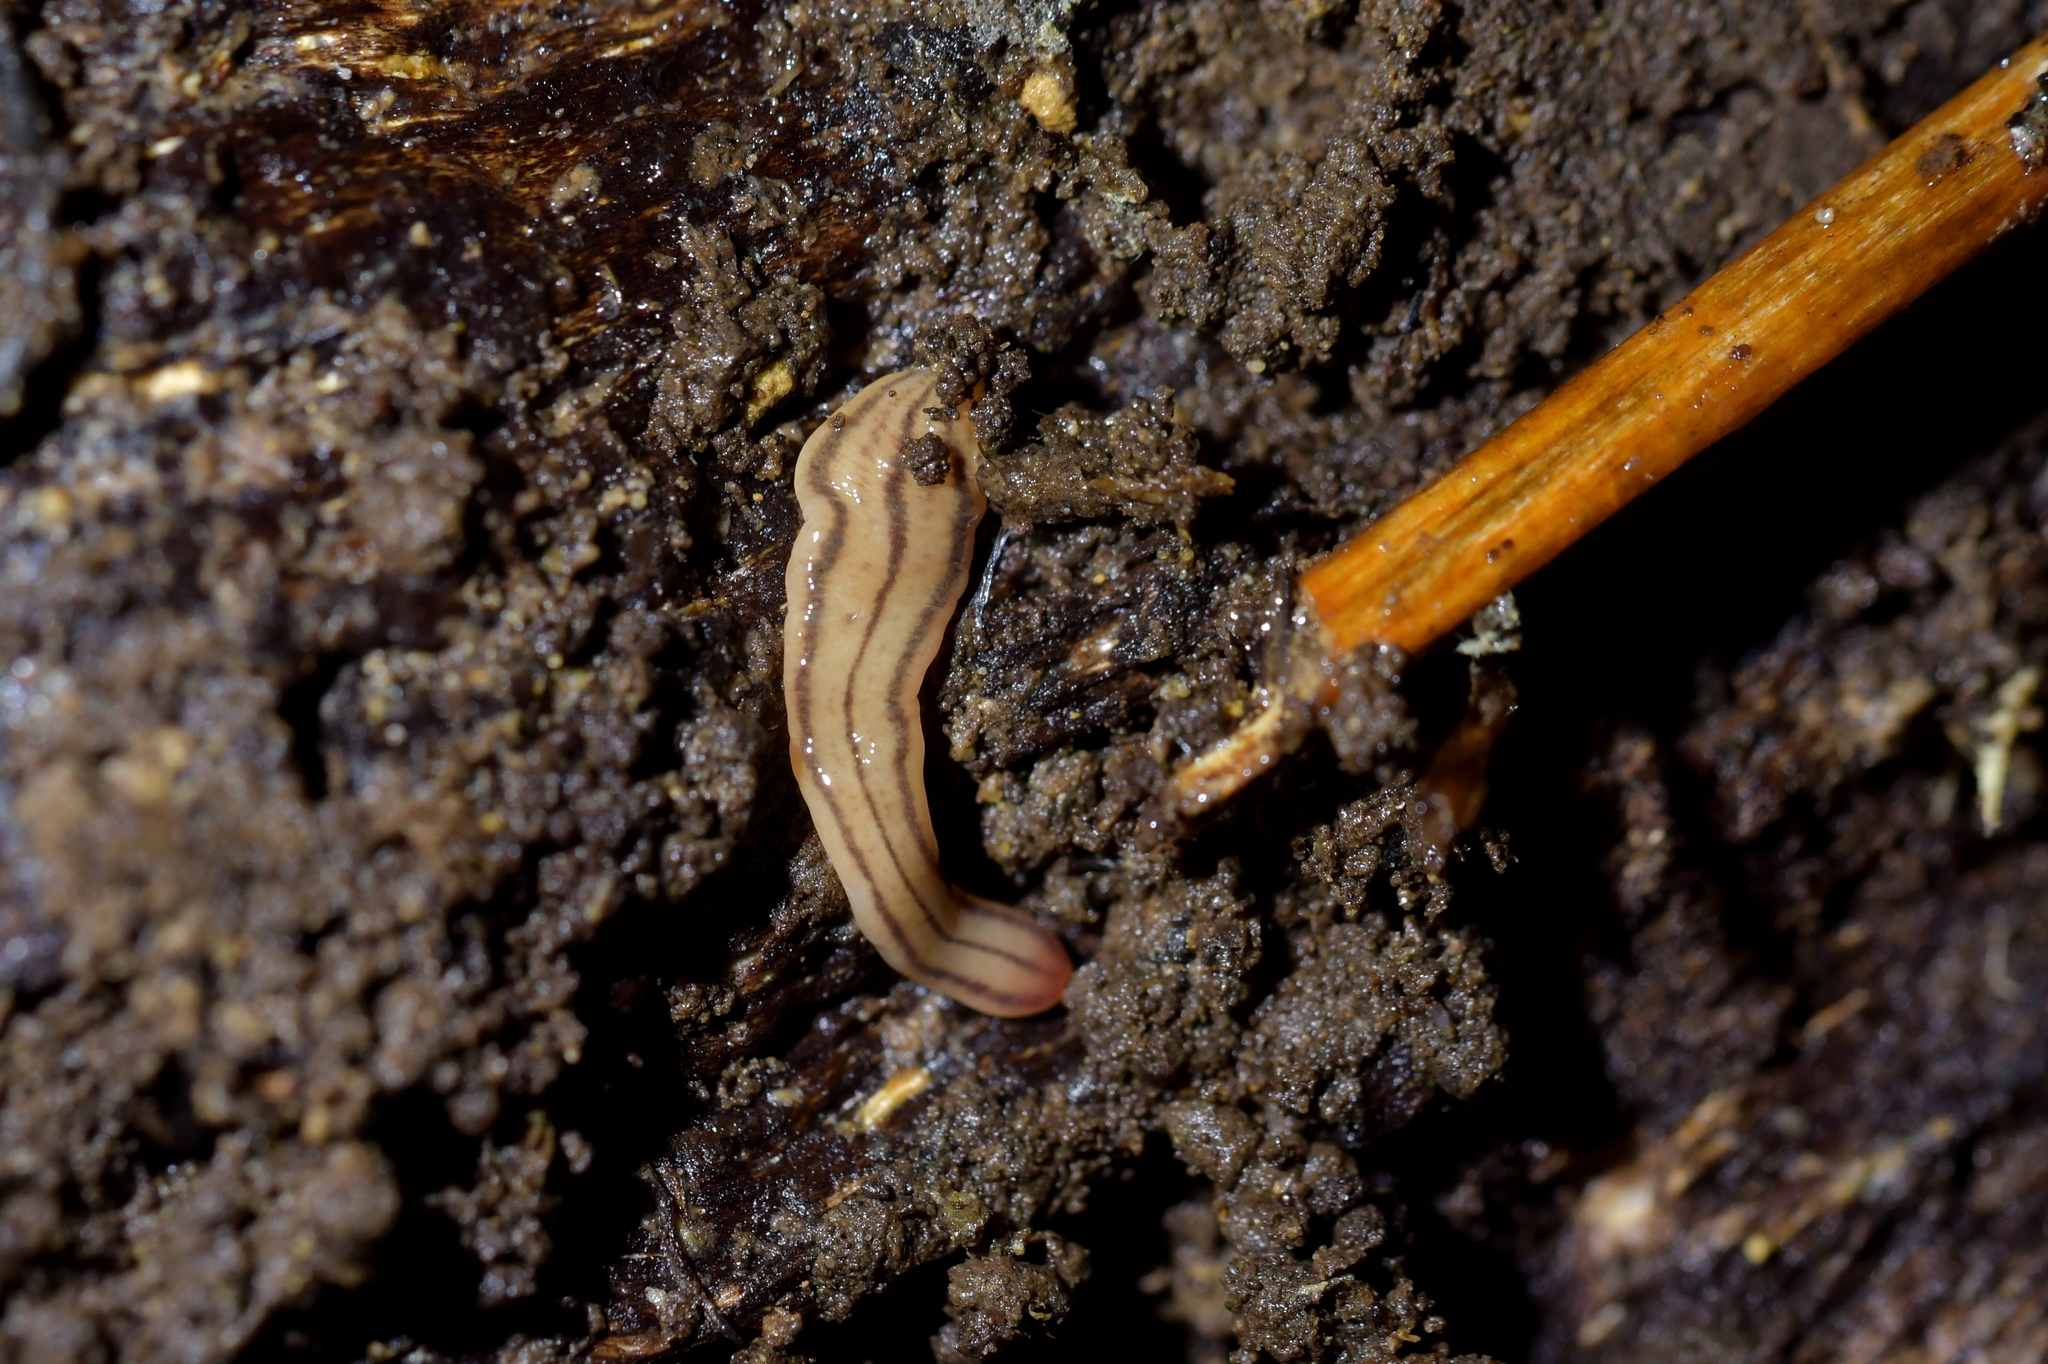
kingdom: Animalia
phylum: Platyhelminthes
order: Tricladida
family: Geoplanidae
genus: Artioposthia
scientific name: Artioposthia howesi
